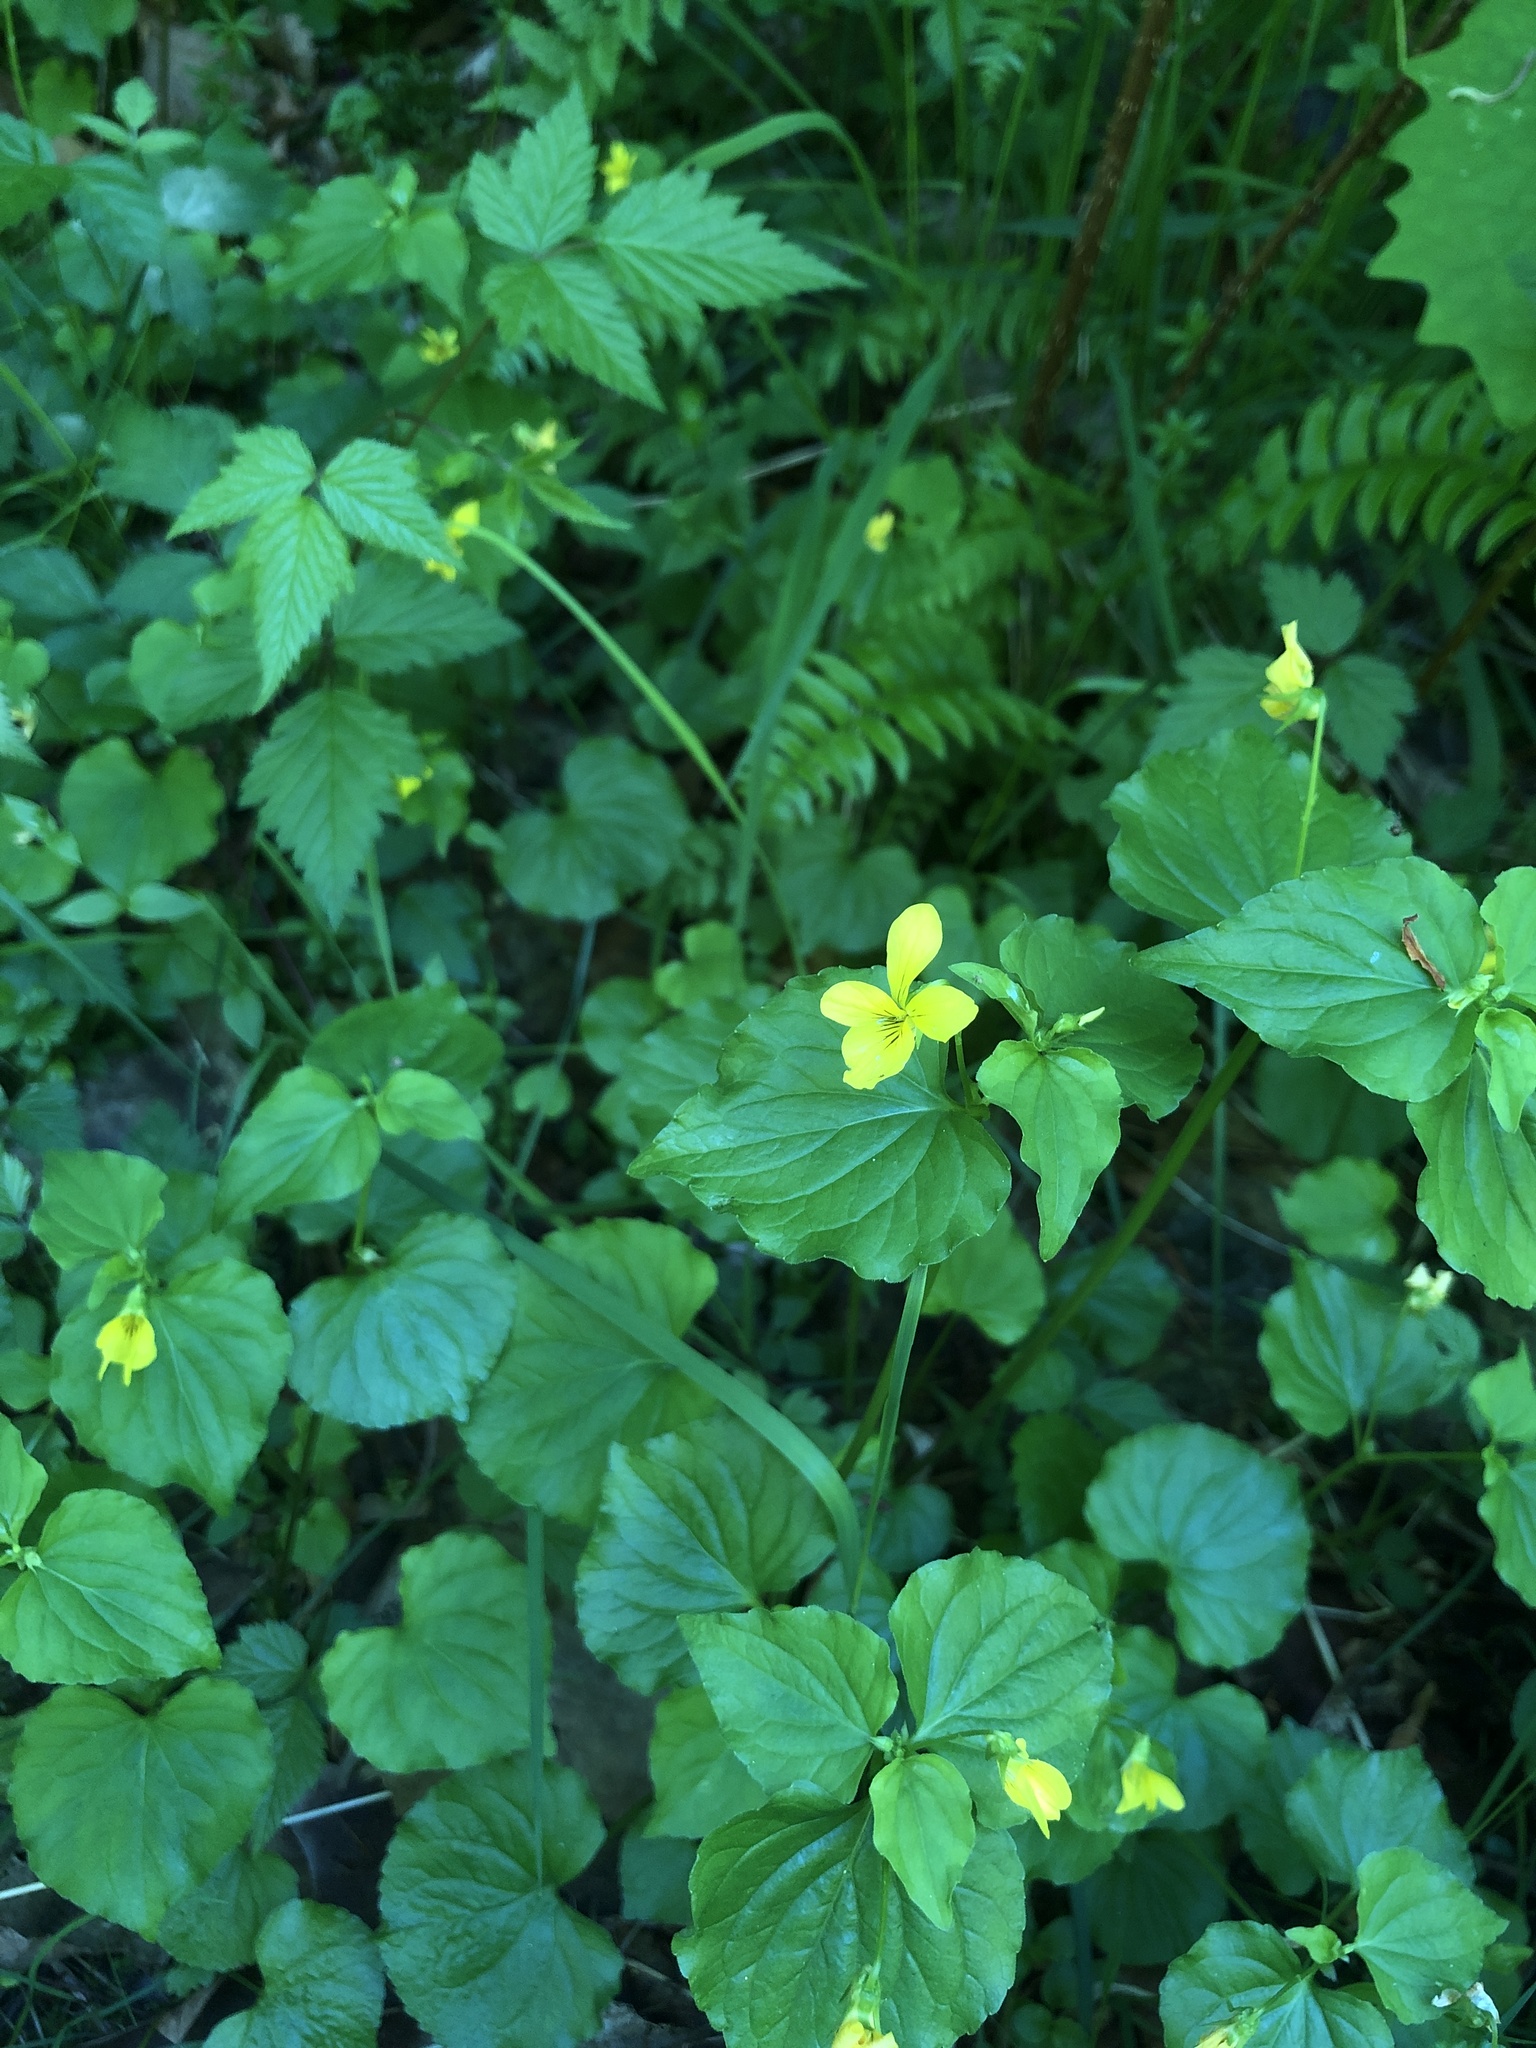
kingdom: Plantae
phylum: Tracheophyta
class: Magnoliopsida
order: Malpighiales
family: Violaceae
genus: Viola
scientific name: Viola glabella
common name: Stream violet
